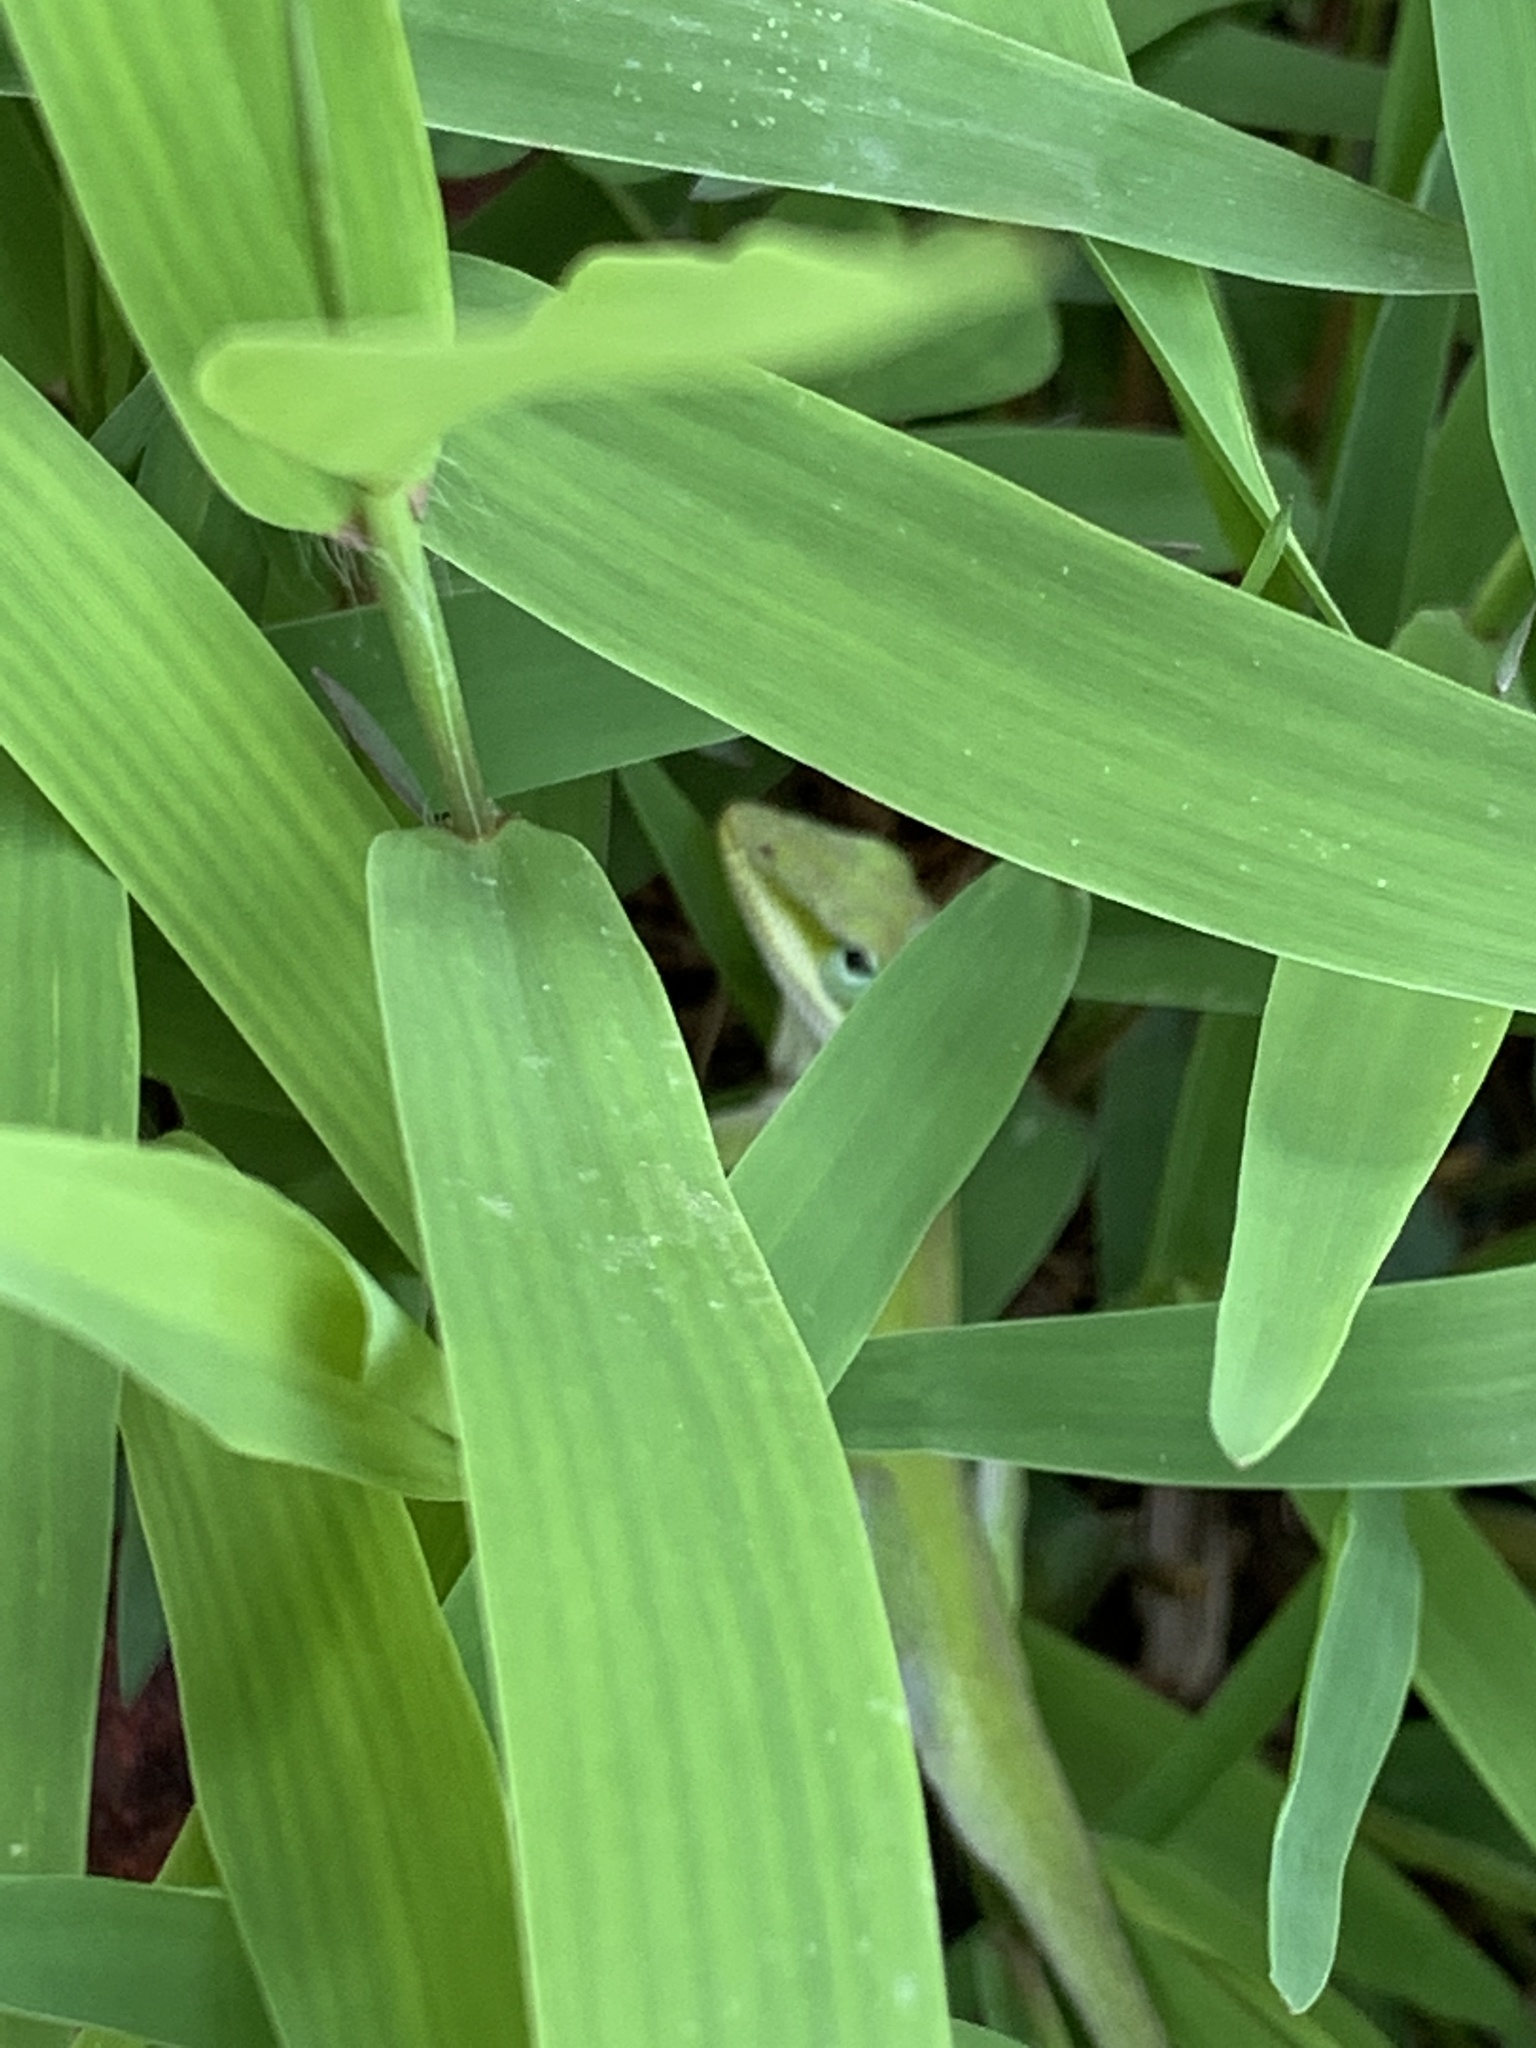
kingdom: Animalia
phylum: Chordata
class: Squamata
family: Dactyloidae
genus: Anolis
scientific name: Anolis carolinensis
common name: Green anole
